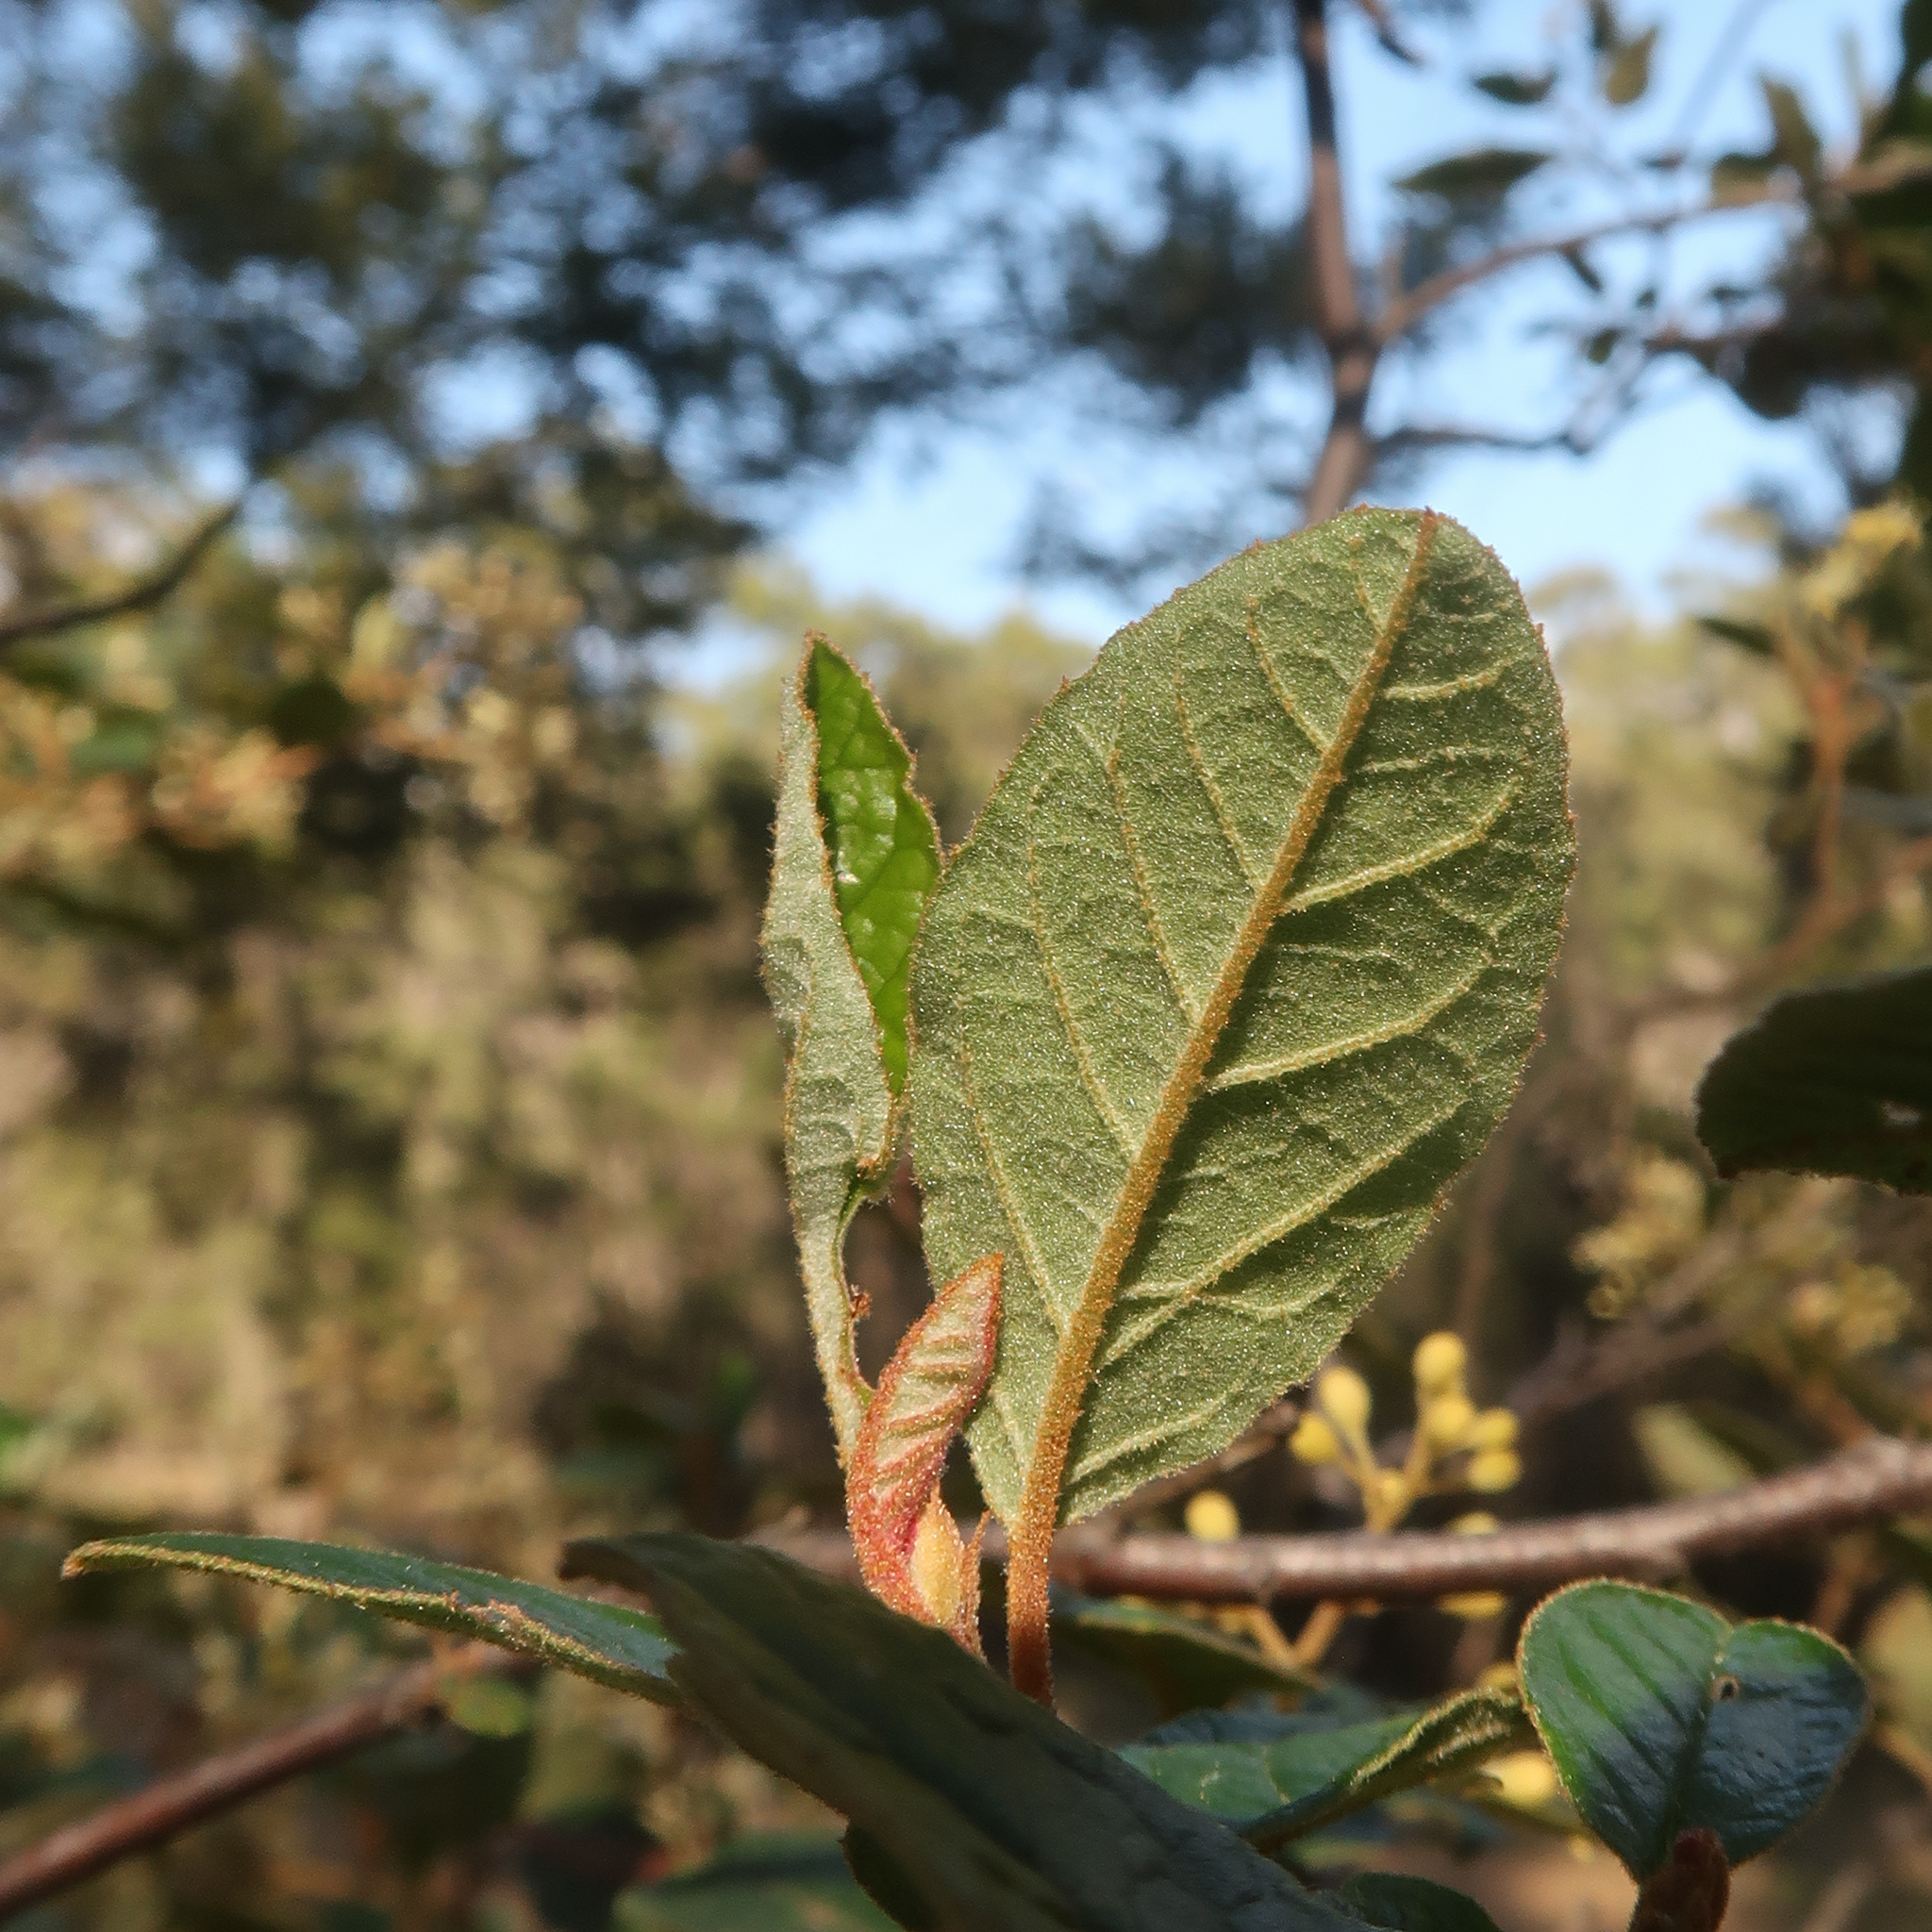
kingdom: Plantae
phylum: Tracheophyta
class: Magnoliopsida
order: Rosales
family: Rhamnaceae
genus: Pomaderris
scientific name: Pomaderris elliptica
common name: Yellow-dogwood
